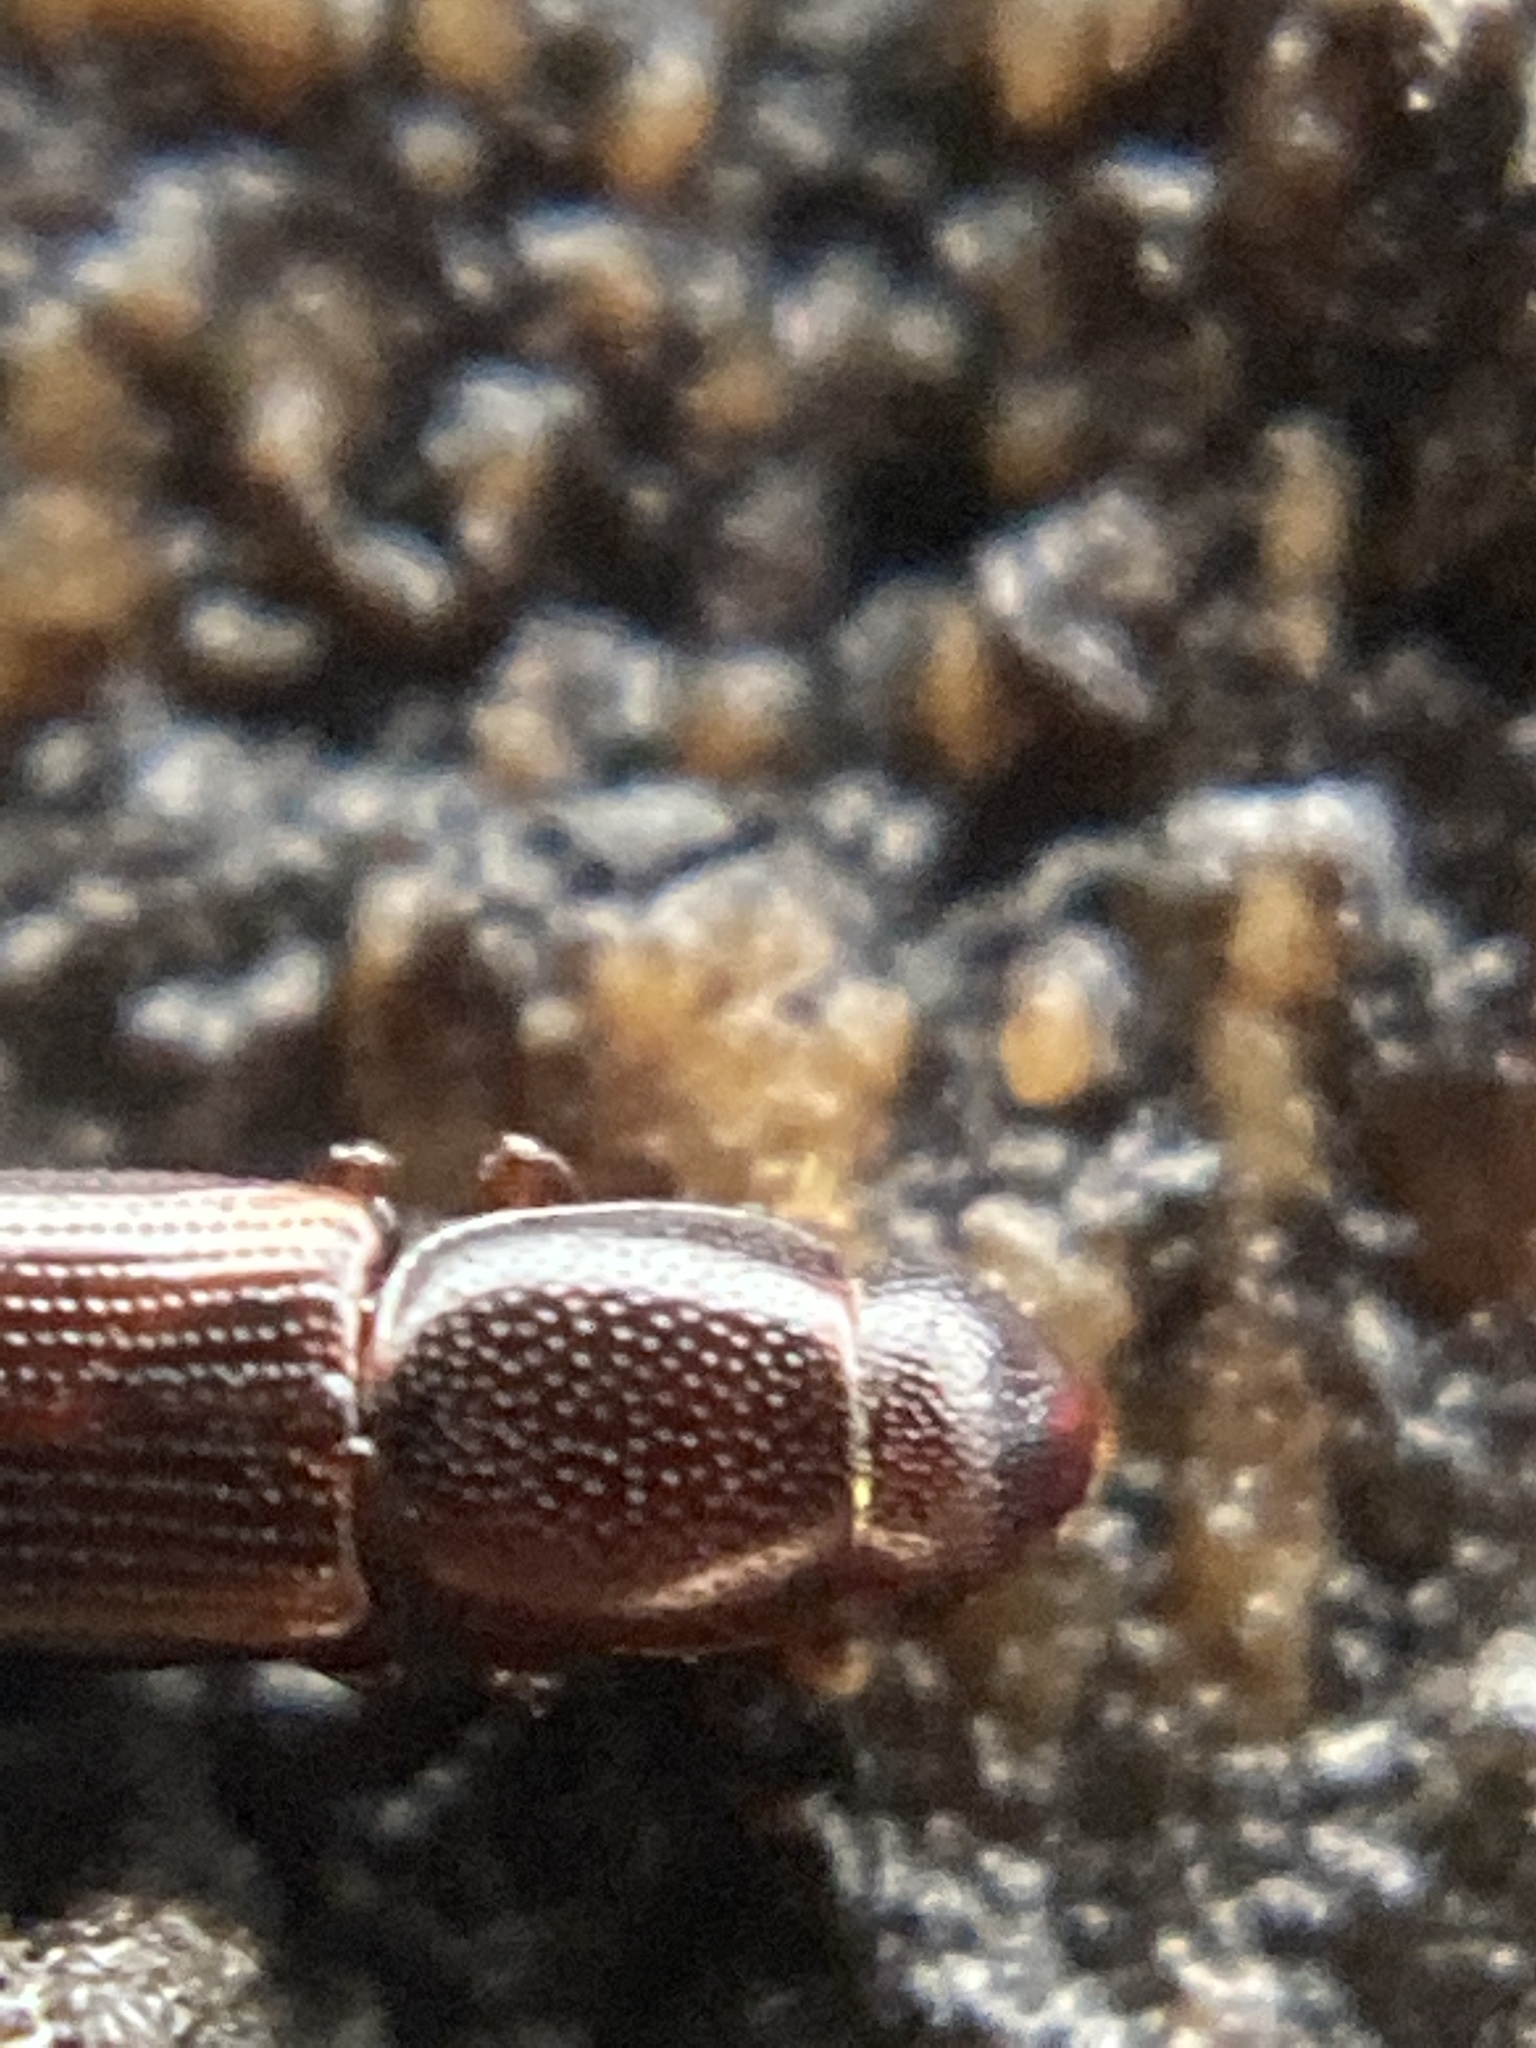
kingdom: Animalia
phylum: Arthropoda
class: Insecta
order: Coleoptera
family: Monotomidae
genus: Rhizophagus
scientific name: Rhizophagus bipustulatus
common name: Root-eating beetle
